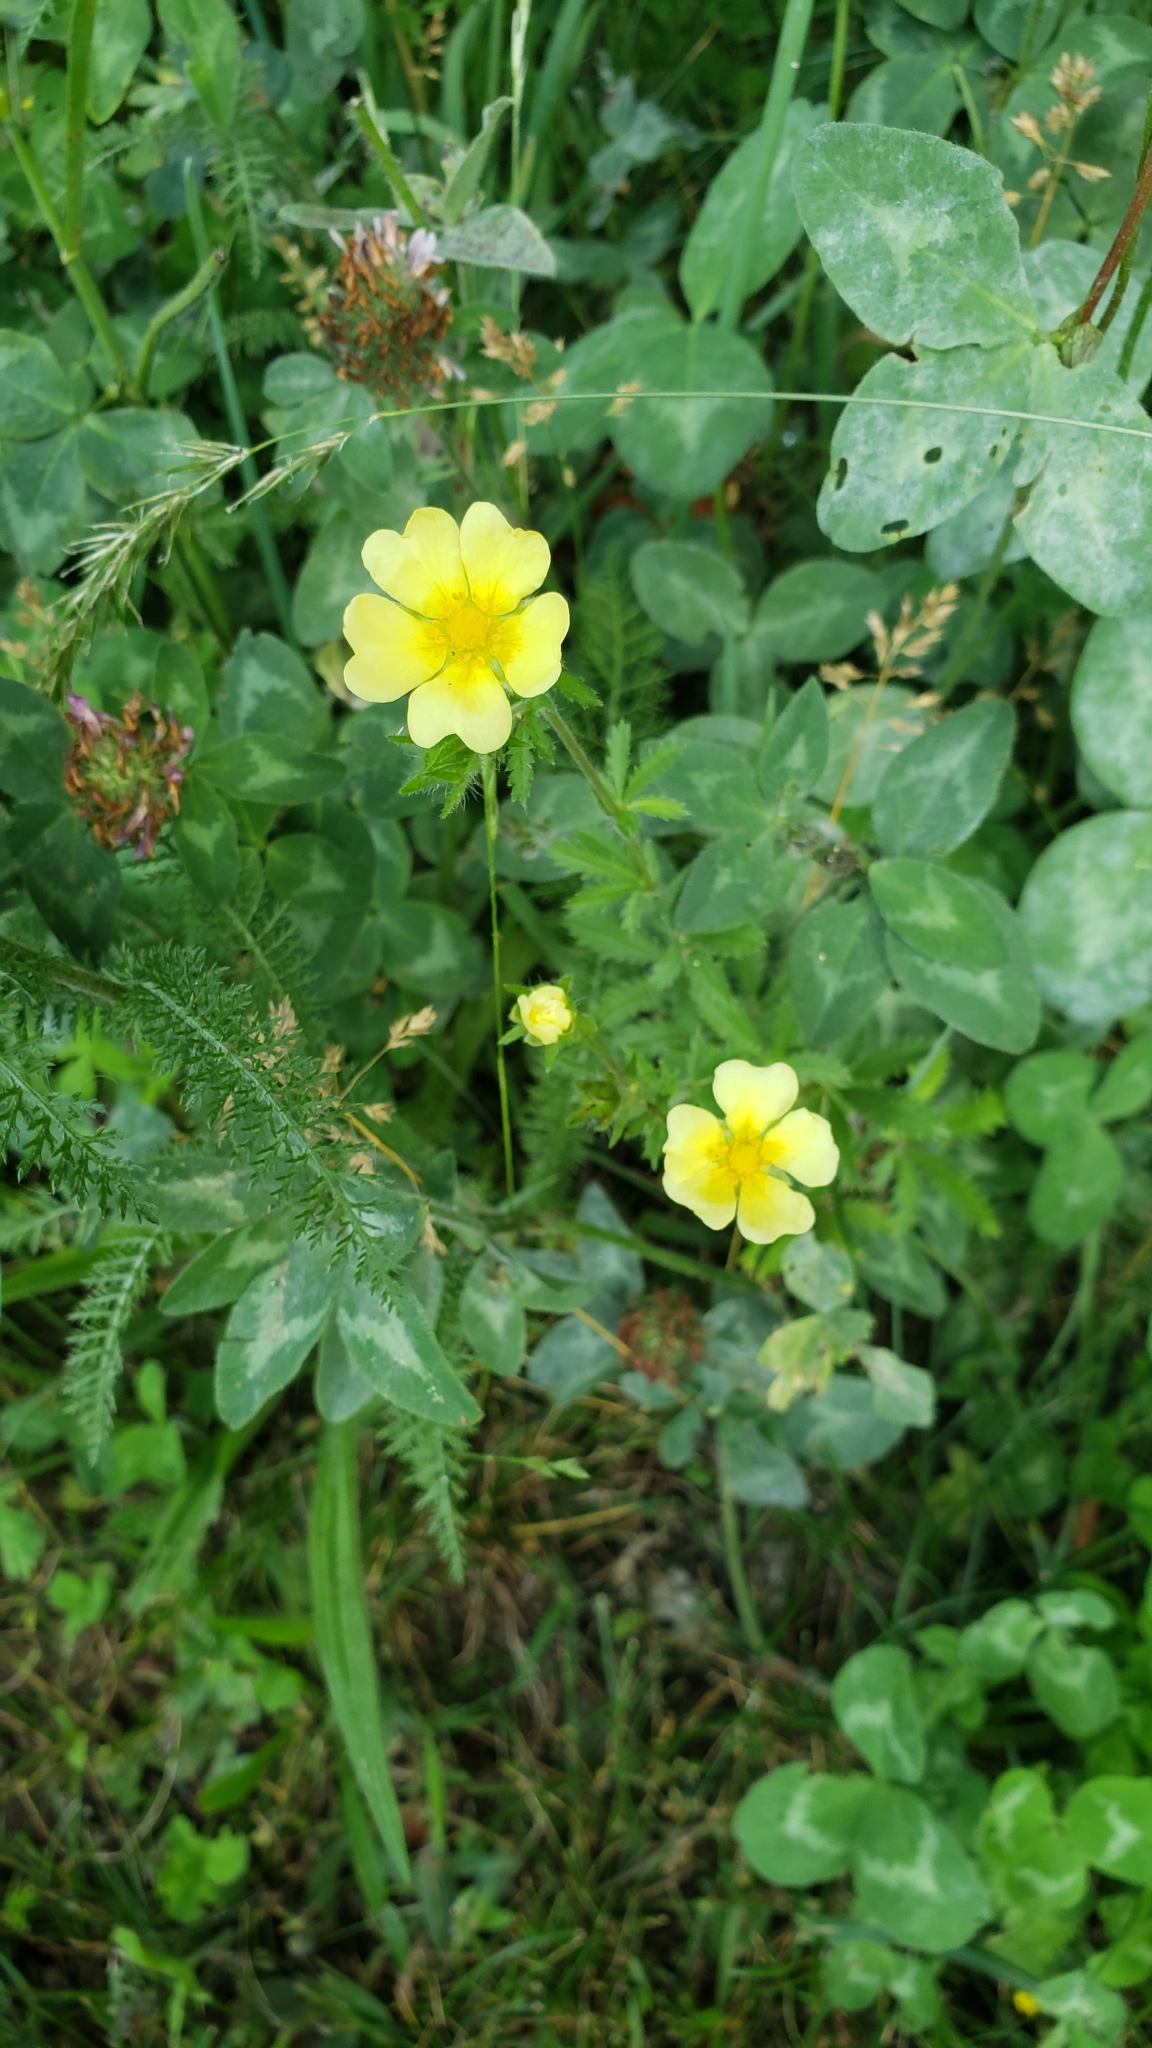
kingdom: Plantae
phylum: Tracheophyta
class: Magnoliopsida
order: Rosales
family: Rosaceae
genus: Potentilla
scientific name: Potentilla recta
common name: Sulphur cinquefoil
